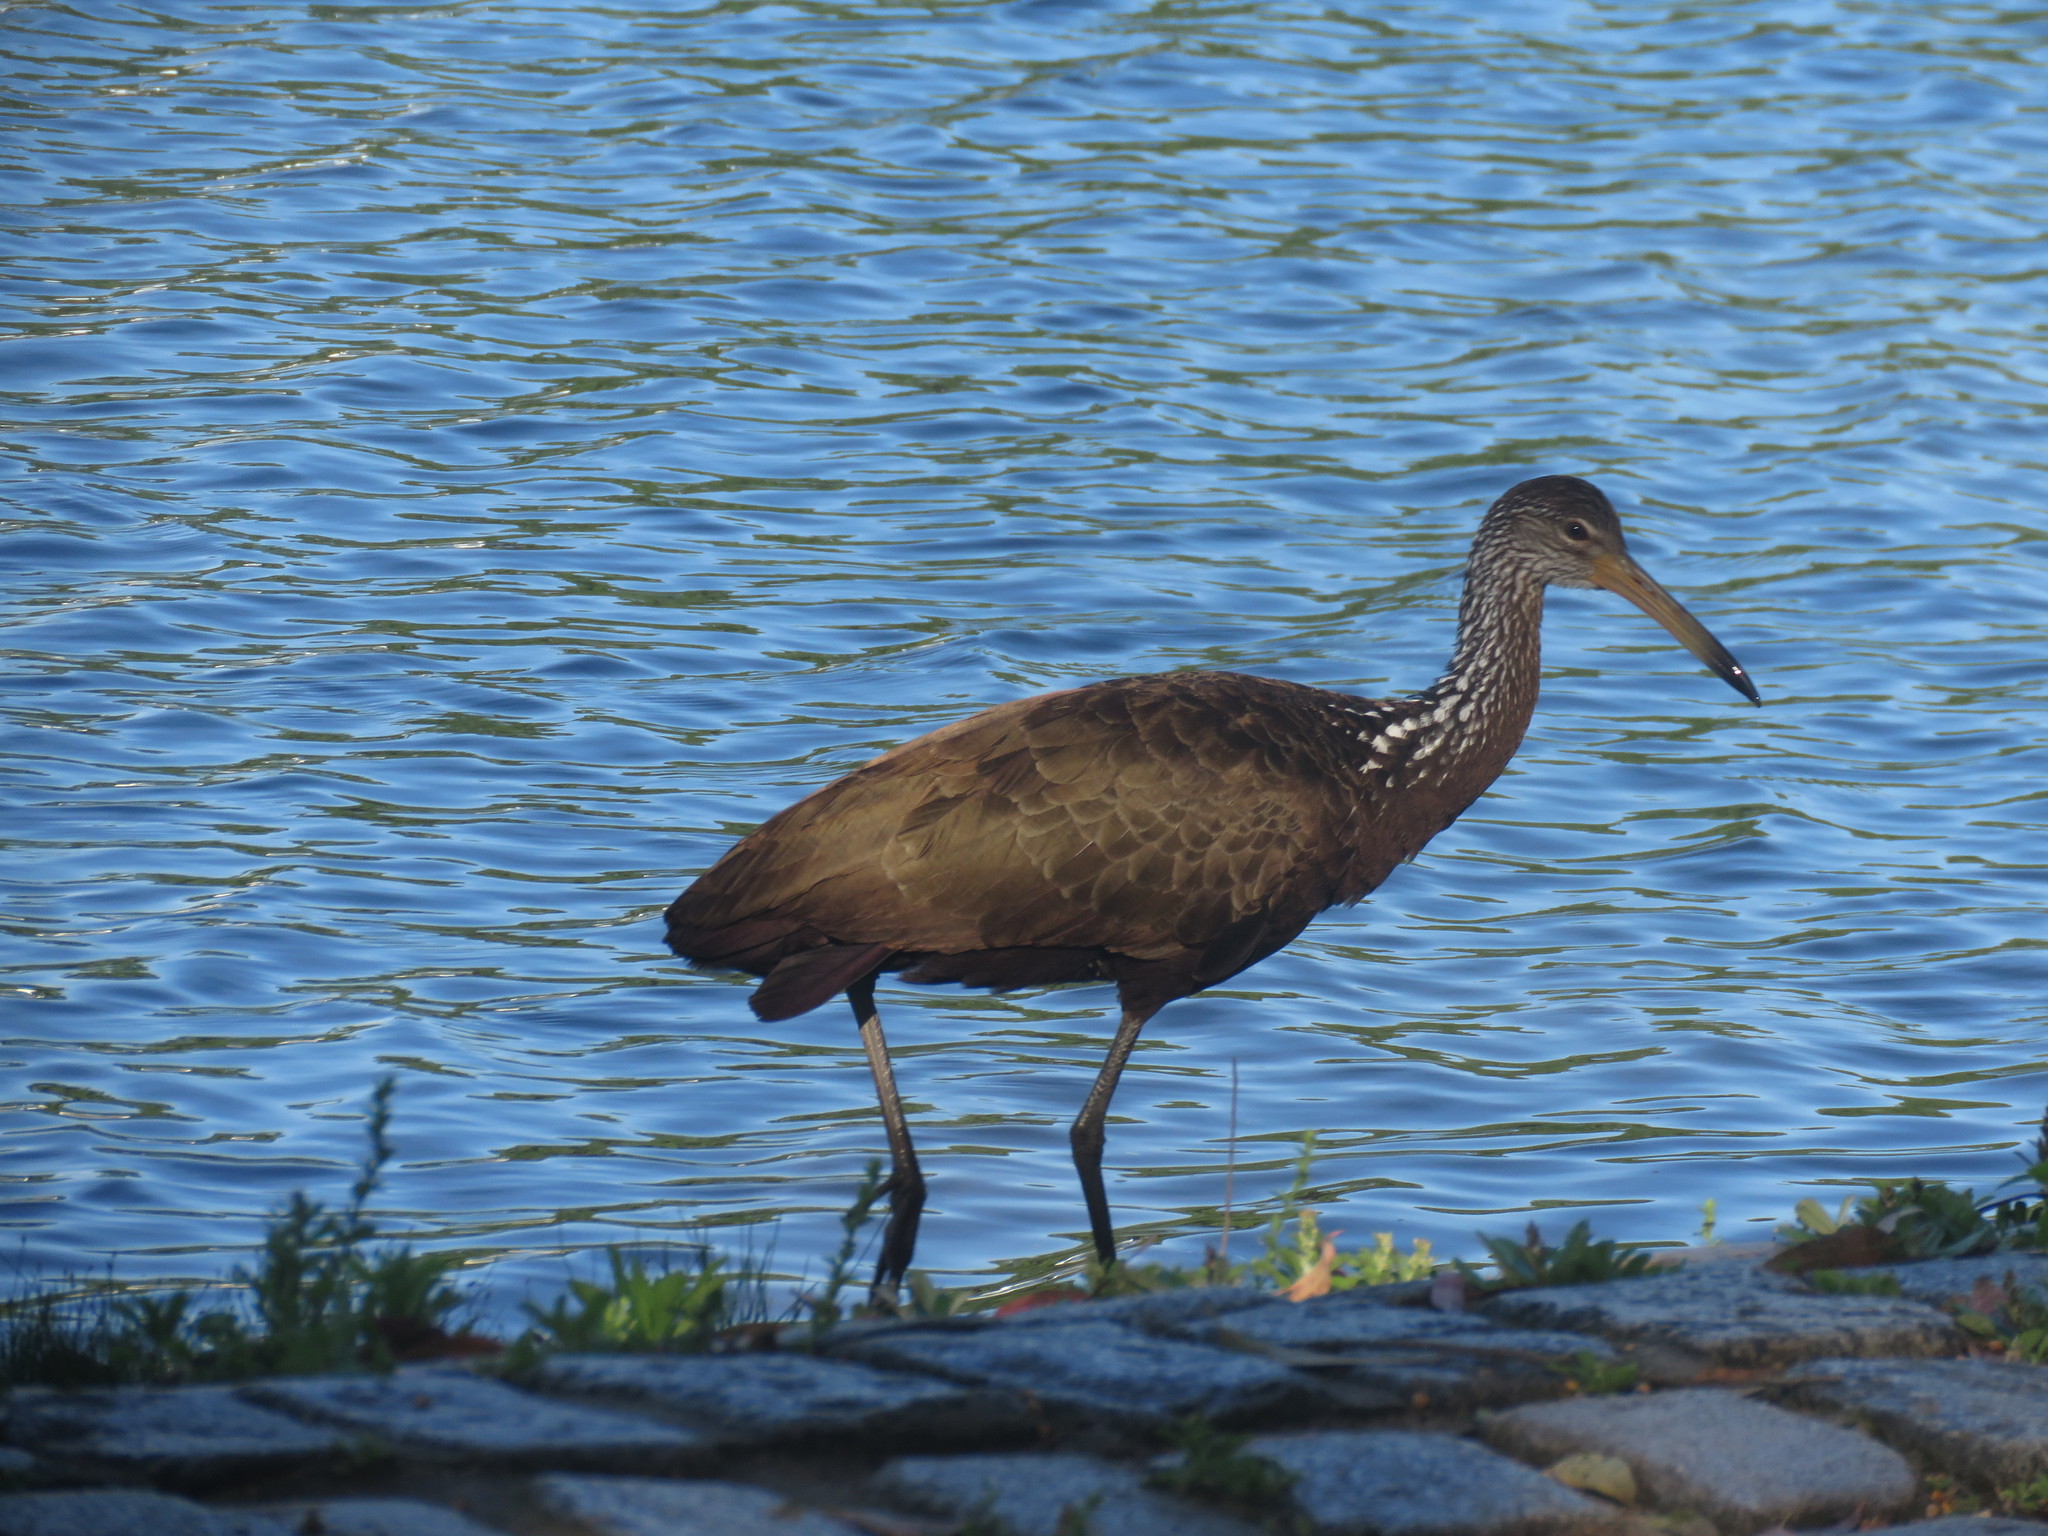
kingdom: Animalia
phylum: Chordata
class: Aves
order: Gruiformes
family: Aramidae
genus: Aramus
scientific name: Aramus guarauna
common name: Limpkin
